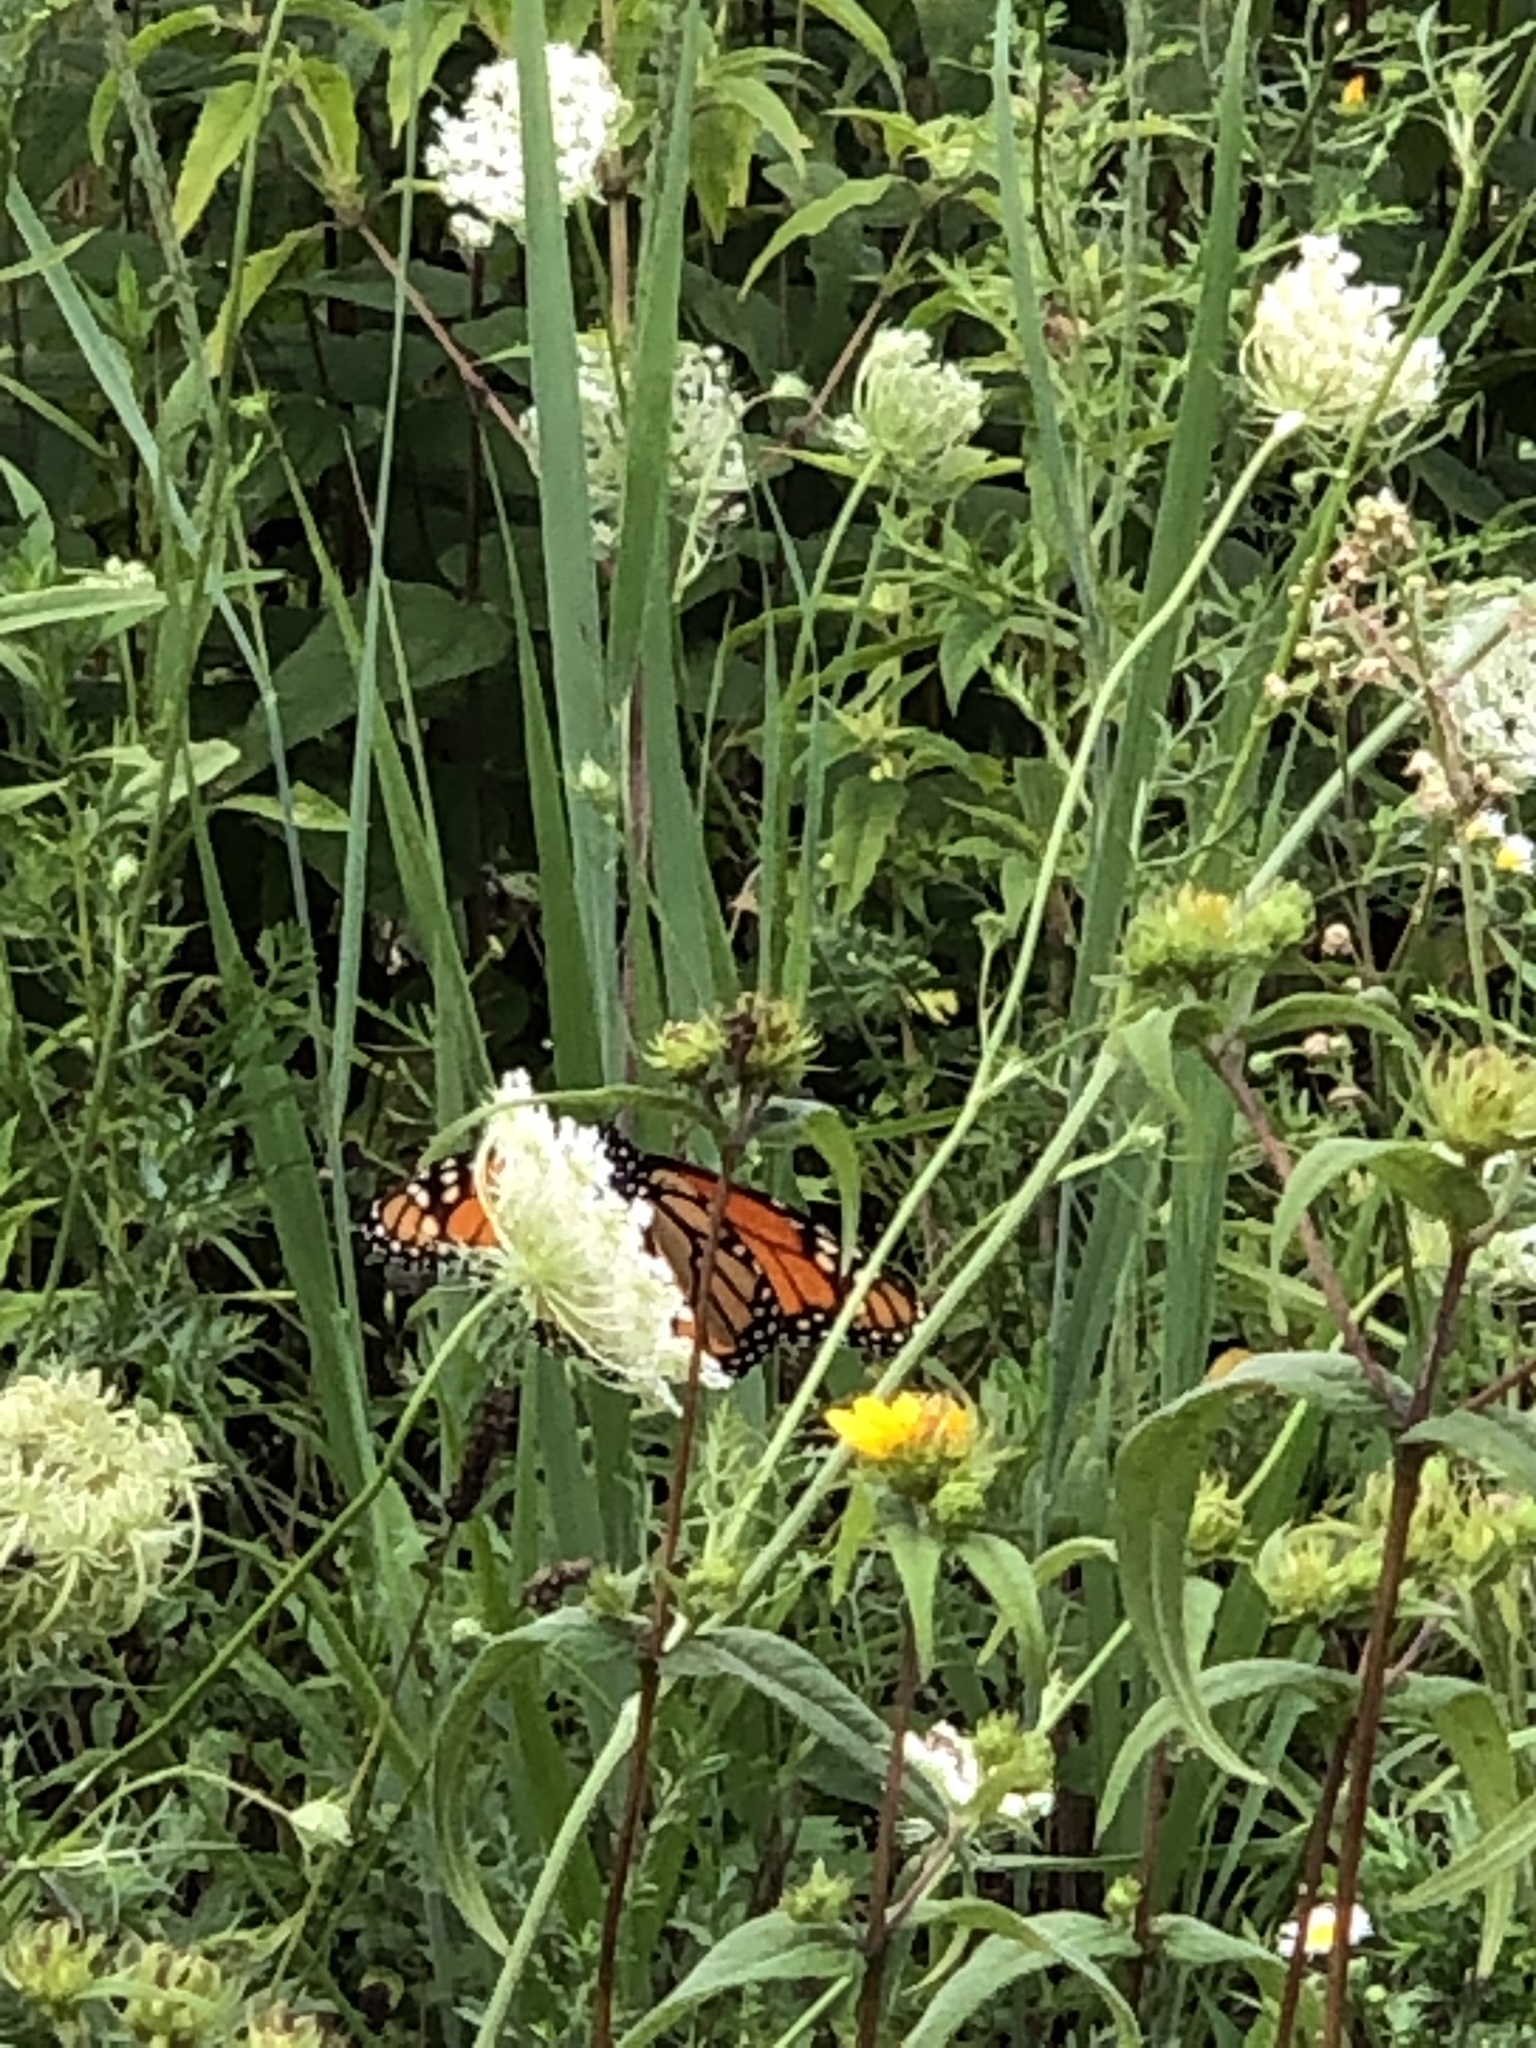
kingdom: Animalia
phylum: Arthropoda
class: Insecta
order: Lepidoptera
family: Nymphalidae
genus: Danaus
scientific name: Danaus plexippus
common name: Monarch
